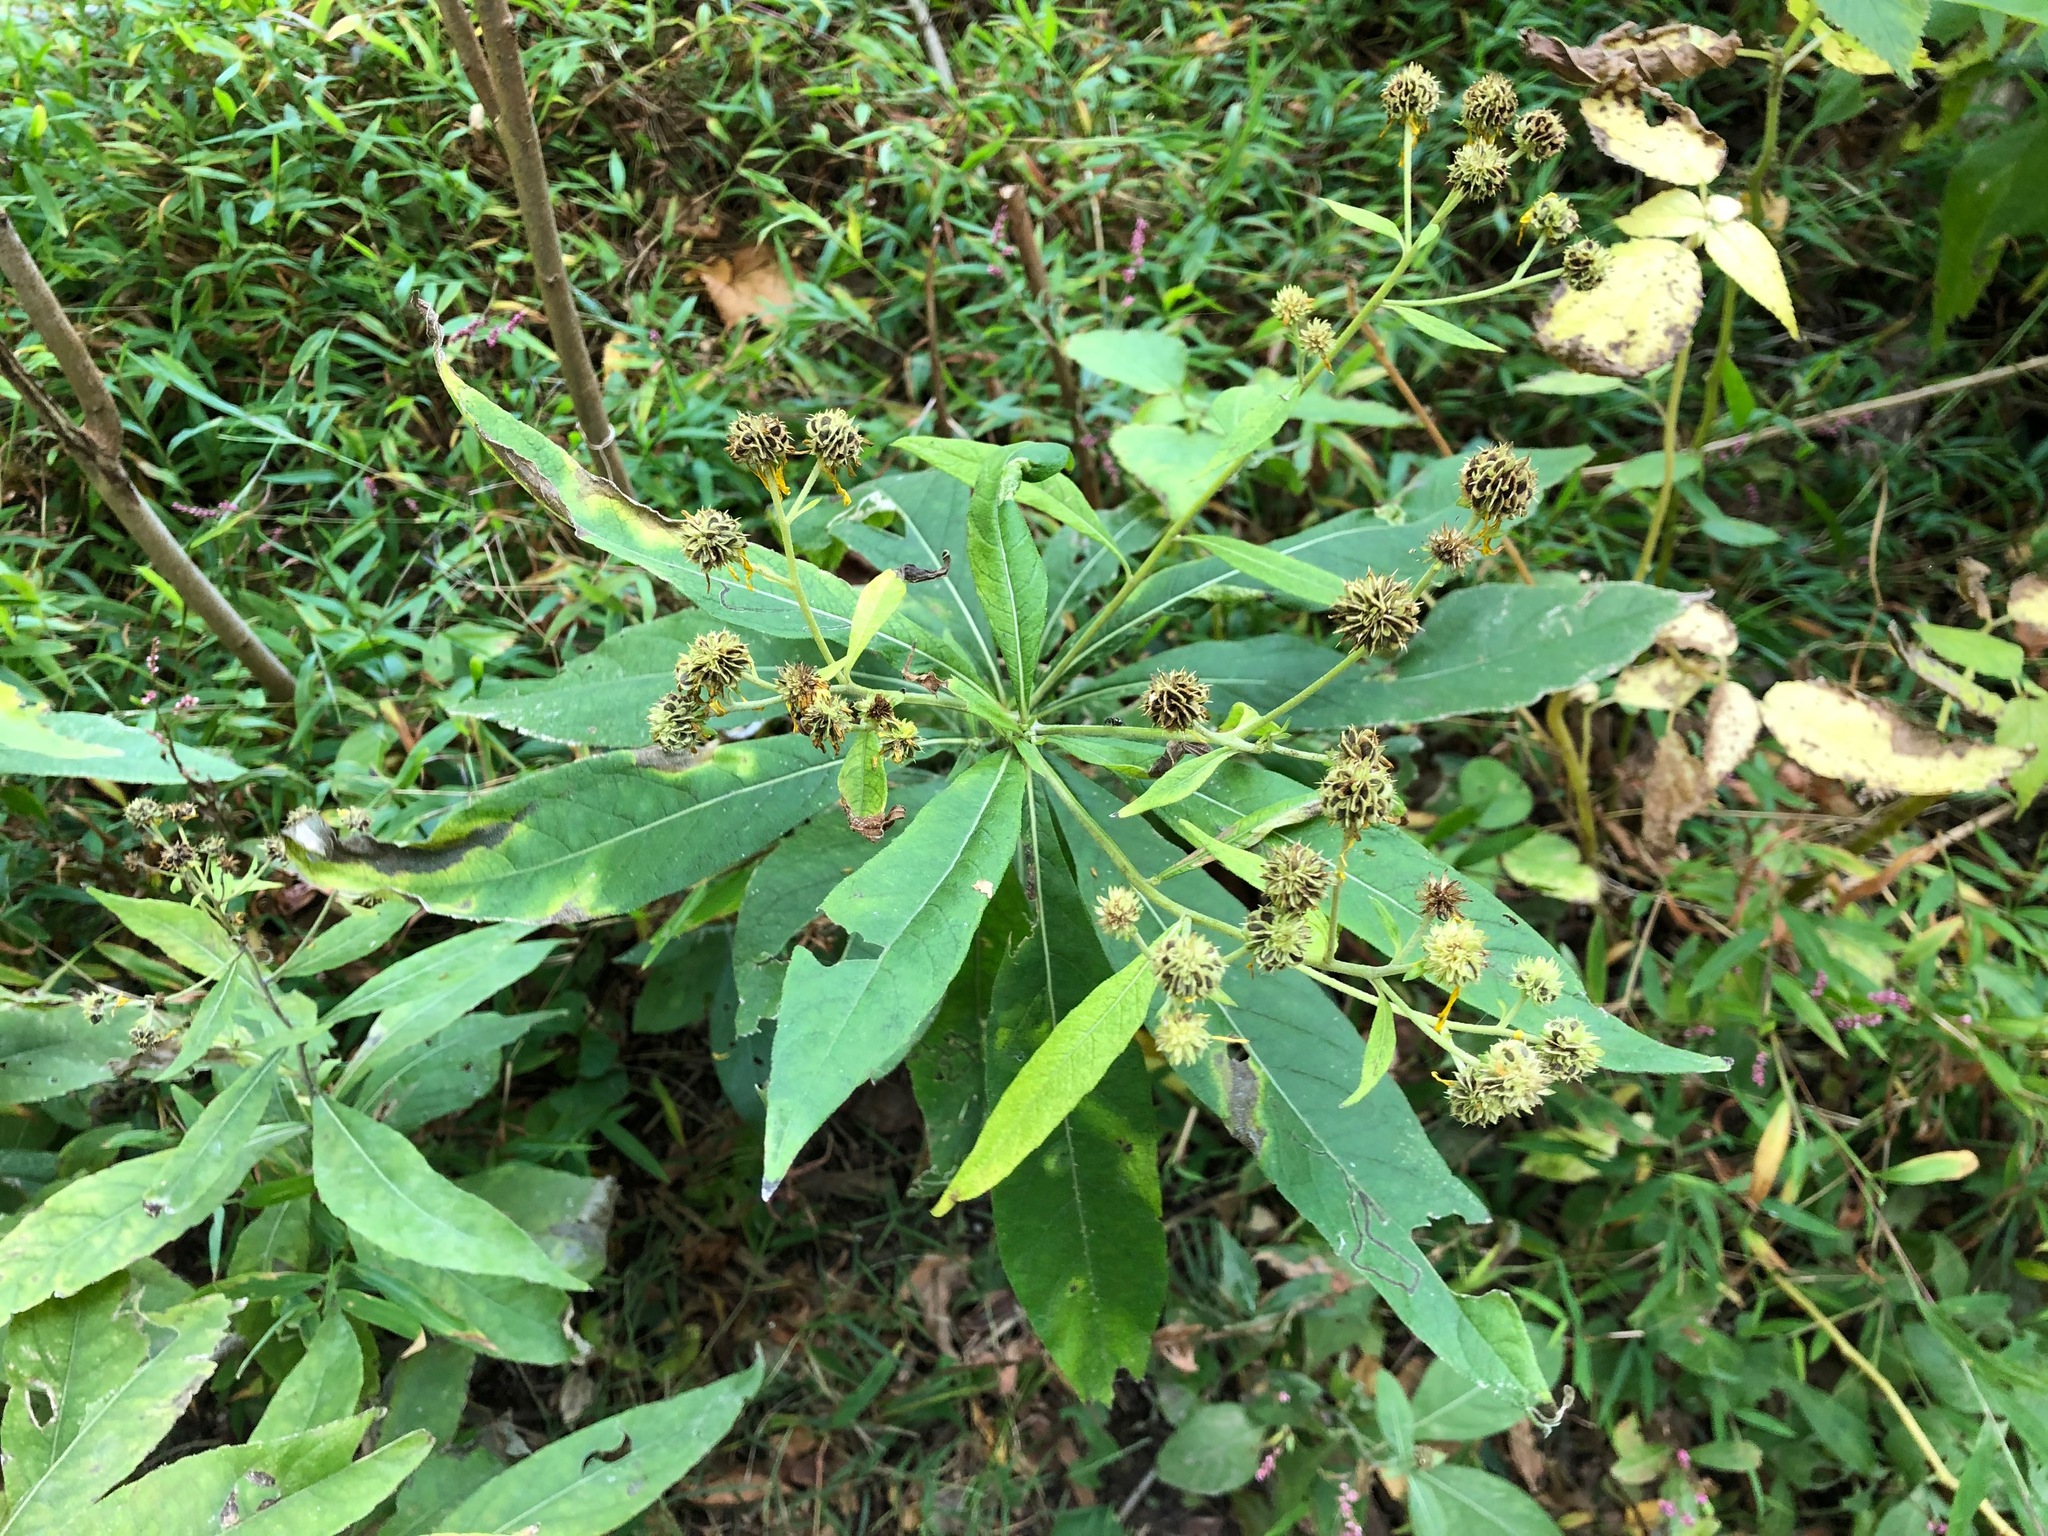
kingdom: Plantae
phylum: Tracheophyta
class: Magnoliopsida
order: Asterales
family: Asteraceae
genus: Verbesina
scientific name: Verbesina alternifolia
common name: Wingstem
